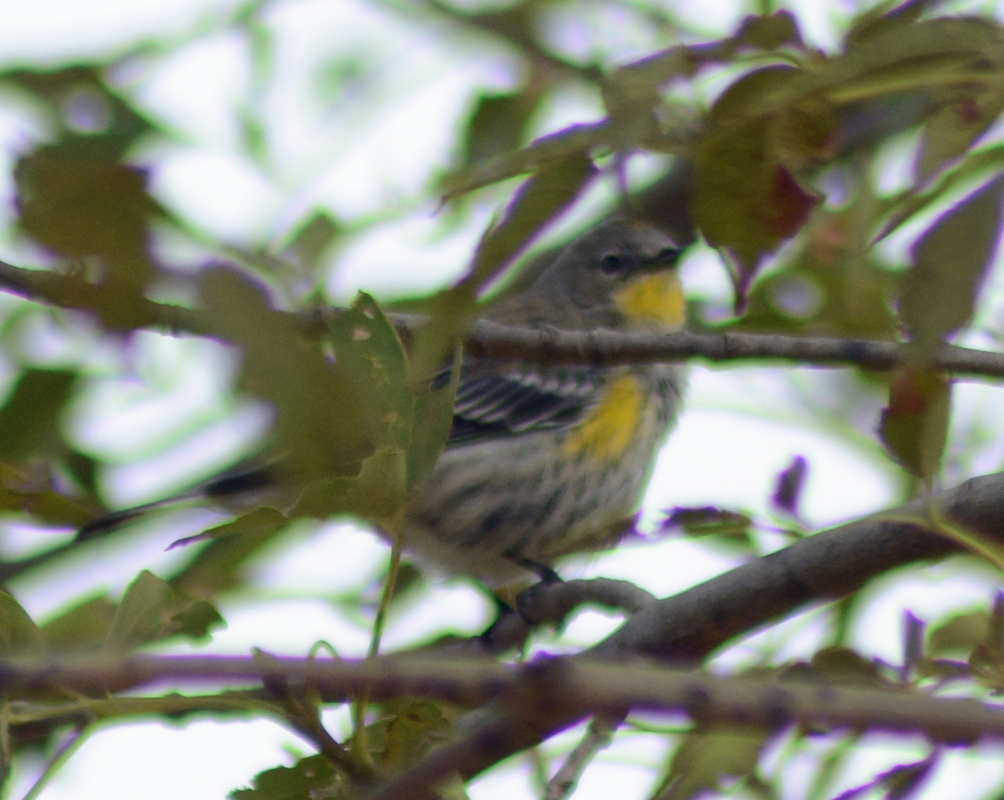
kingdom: Animalia
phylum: Chordata
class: Aves
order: Passeriformes
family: Parulidae
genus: Setophaga
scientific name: Setophaga auduboni
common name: Audubon's warbler
